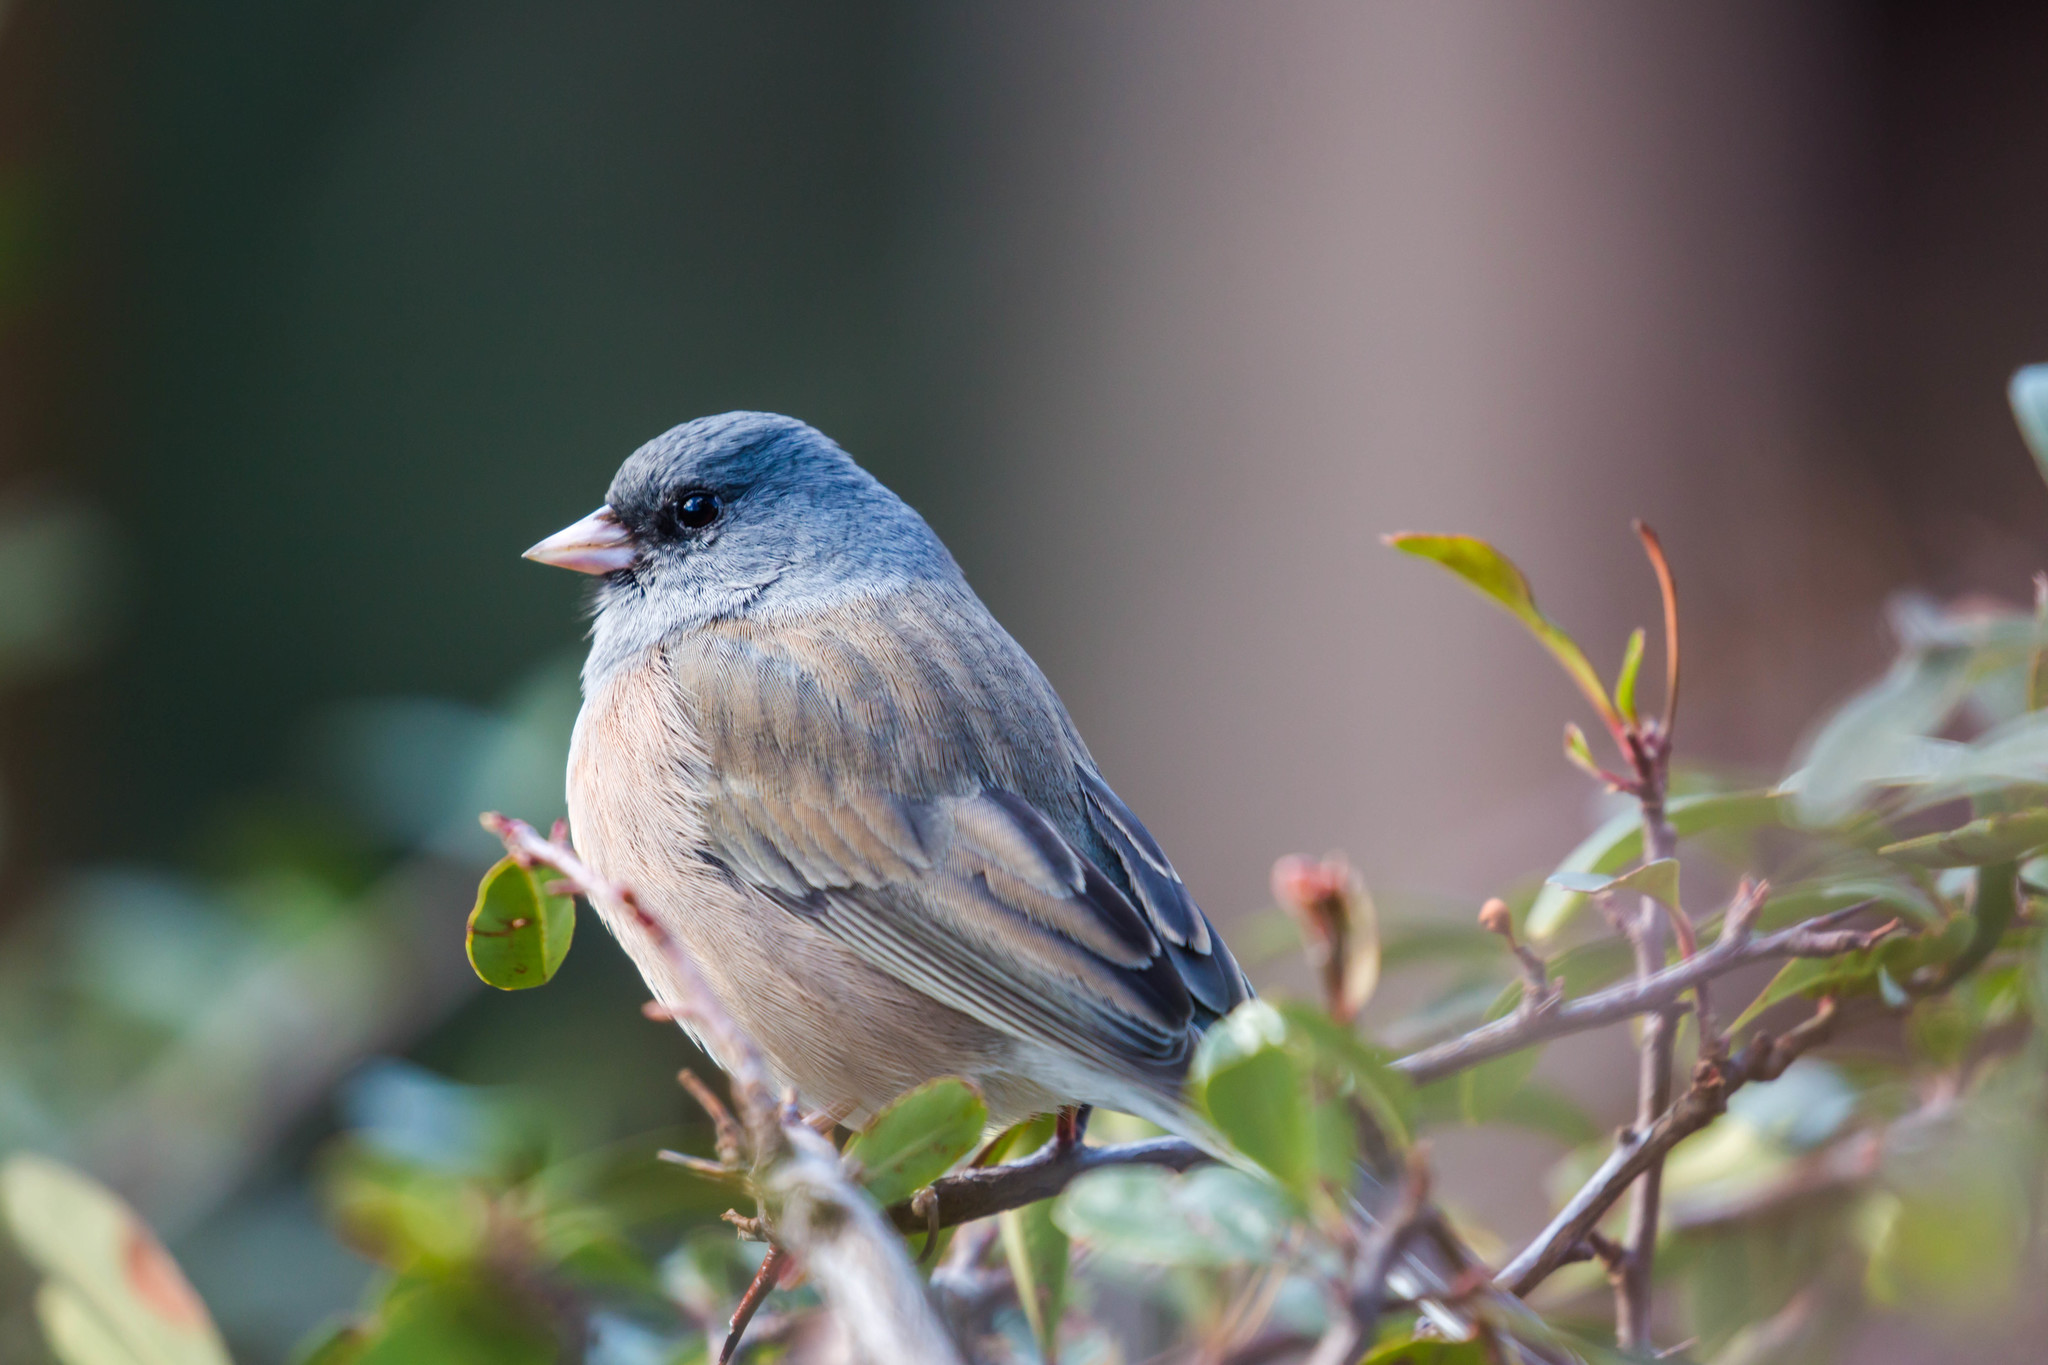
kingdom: Animalia
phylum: Chordata
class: Aves
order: Passeriformes
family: Passerellidae
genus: Junco
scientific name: Junco hyemalis
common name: Dark-eyed junco
